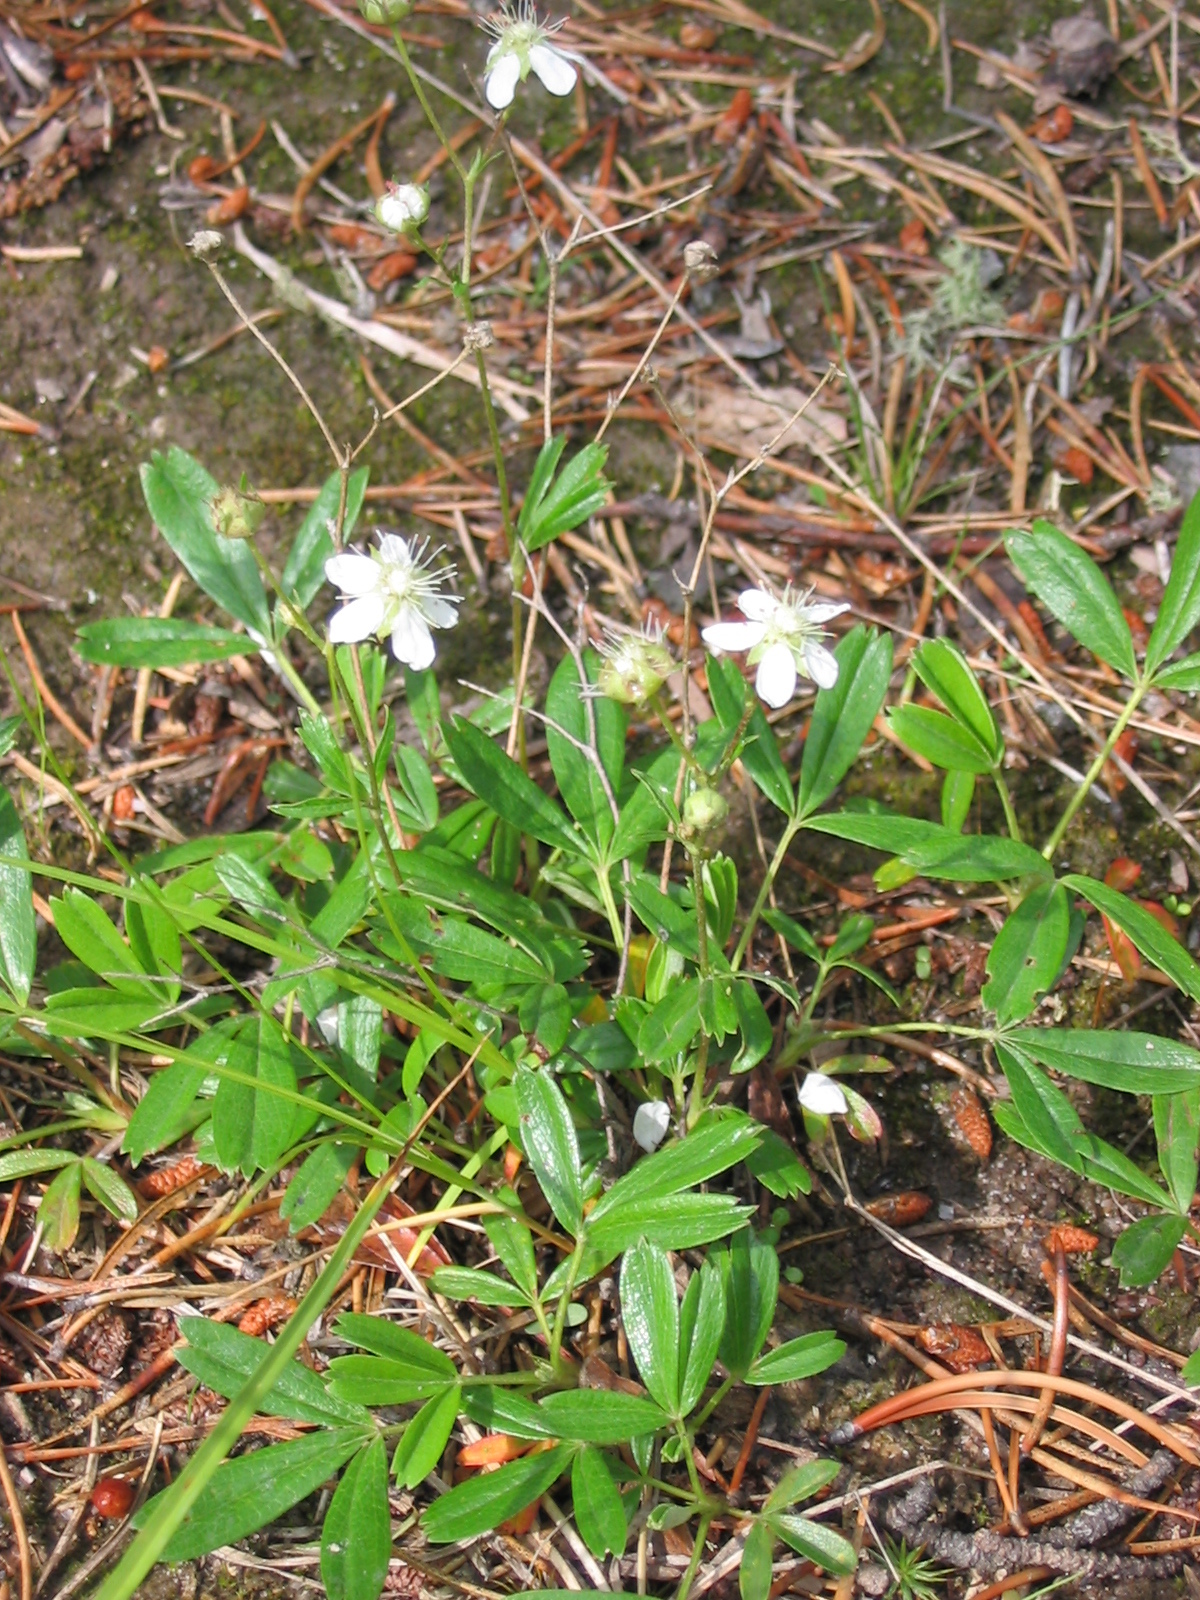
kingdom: Plantae
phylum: Tracheophyta
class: Magnoliopsida
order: Rosales
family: Rosaceae
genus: Sibbaldia
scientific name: Sibbaldia tridentata
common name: Three-toothed cinquefoil
